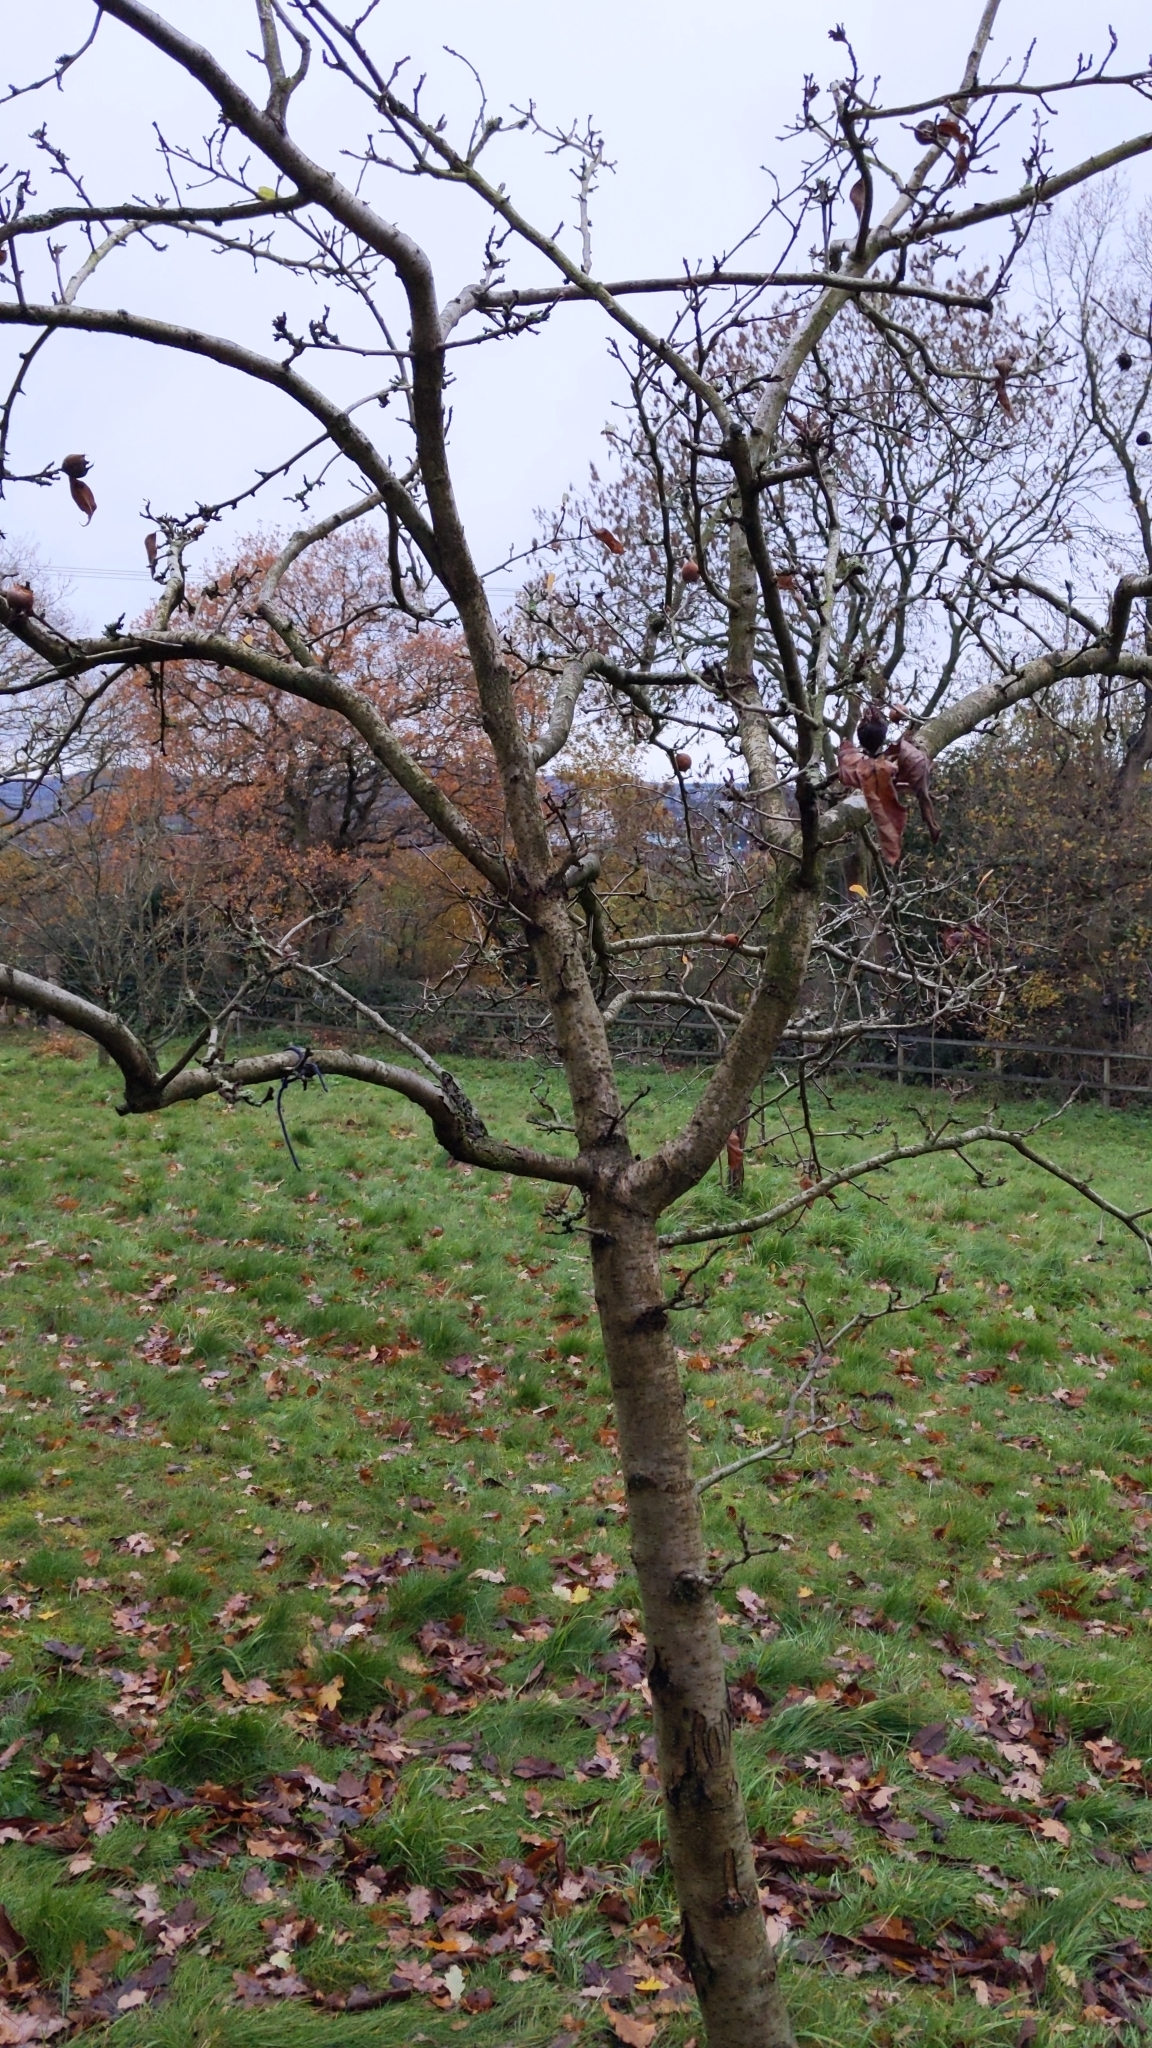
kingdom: Plantae
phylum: Tracheophyta
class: Magnoliopsida
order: Rosales
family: Rosaceae
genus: Mespilus
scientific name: Mespilus germanica
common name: Medlar
